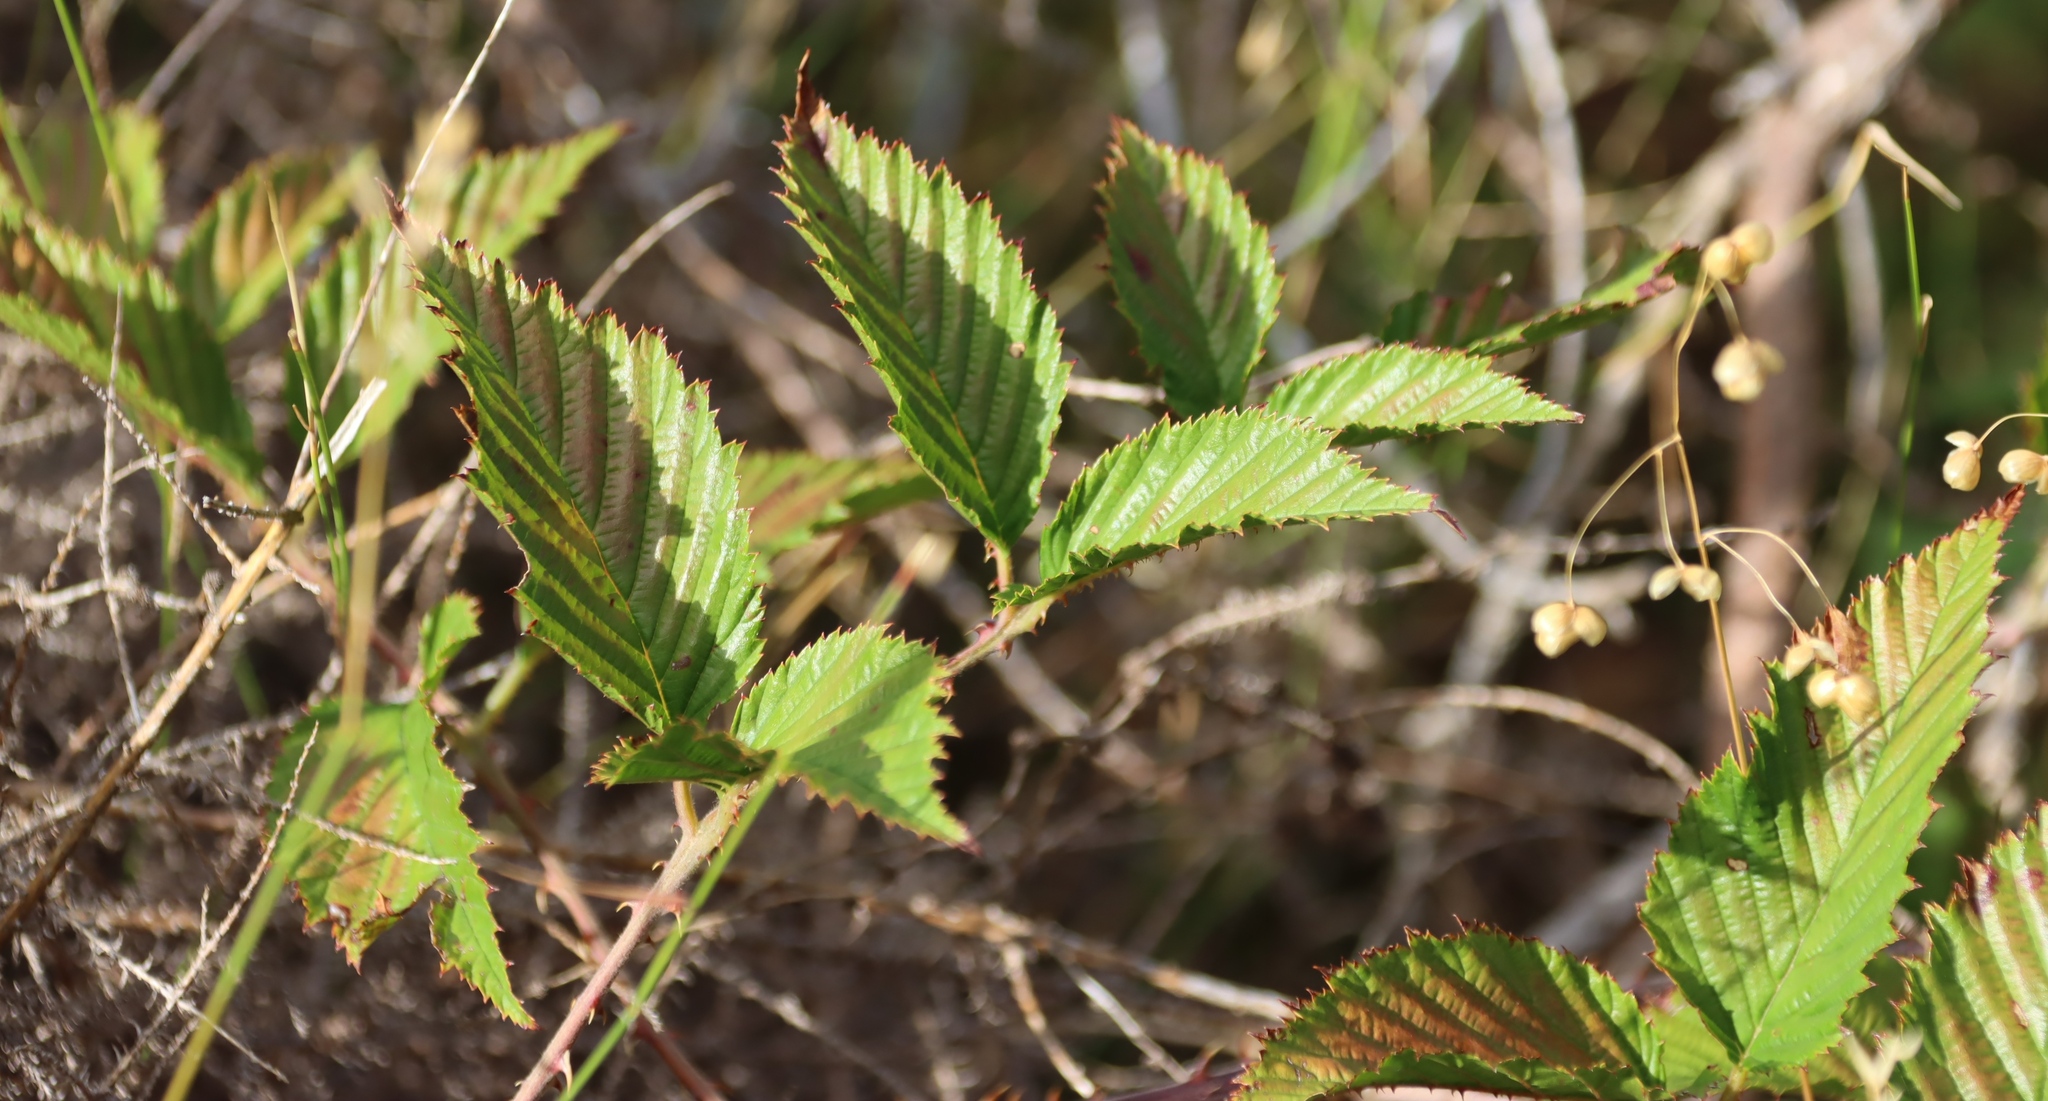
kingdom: Plantae
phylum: Tracheophyta
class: Magnoliopsida
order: Rosales
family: Rosaceae
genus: Rubus
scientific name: Rubus pinnatus
